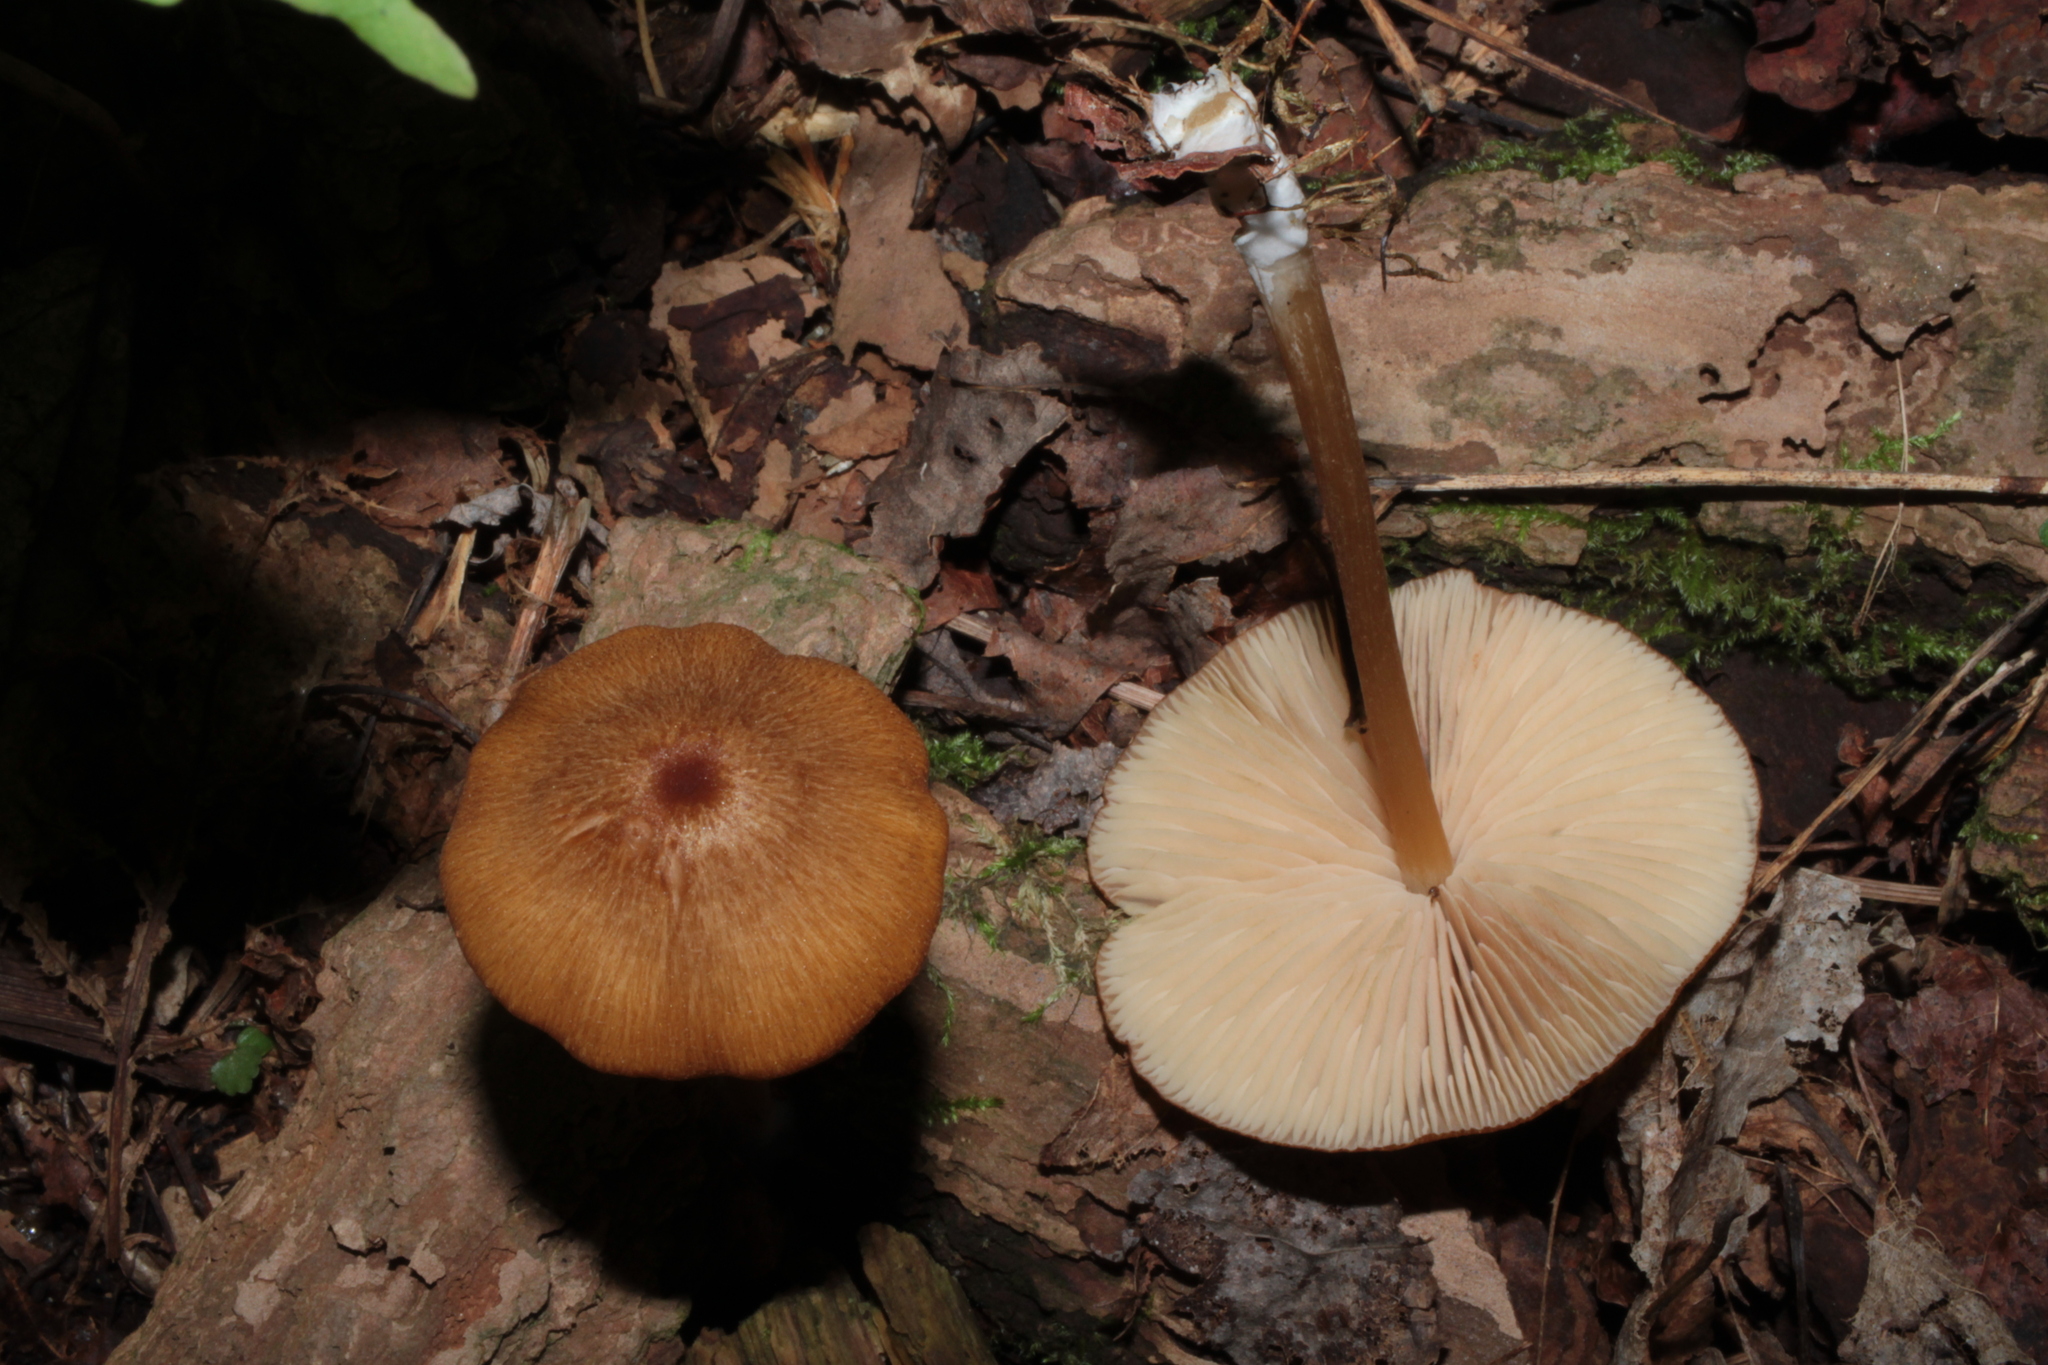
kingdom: Fungi
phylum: Basidiomycota
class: Agaricomycetes
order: Agaricales
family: Entolomataceae
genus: Entoloma
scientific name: Entoloma formosum
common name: Pretty pinkgill
